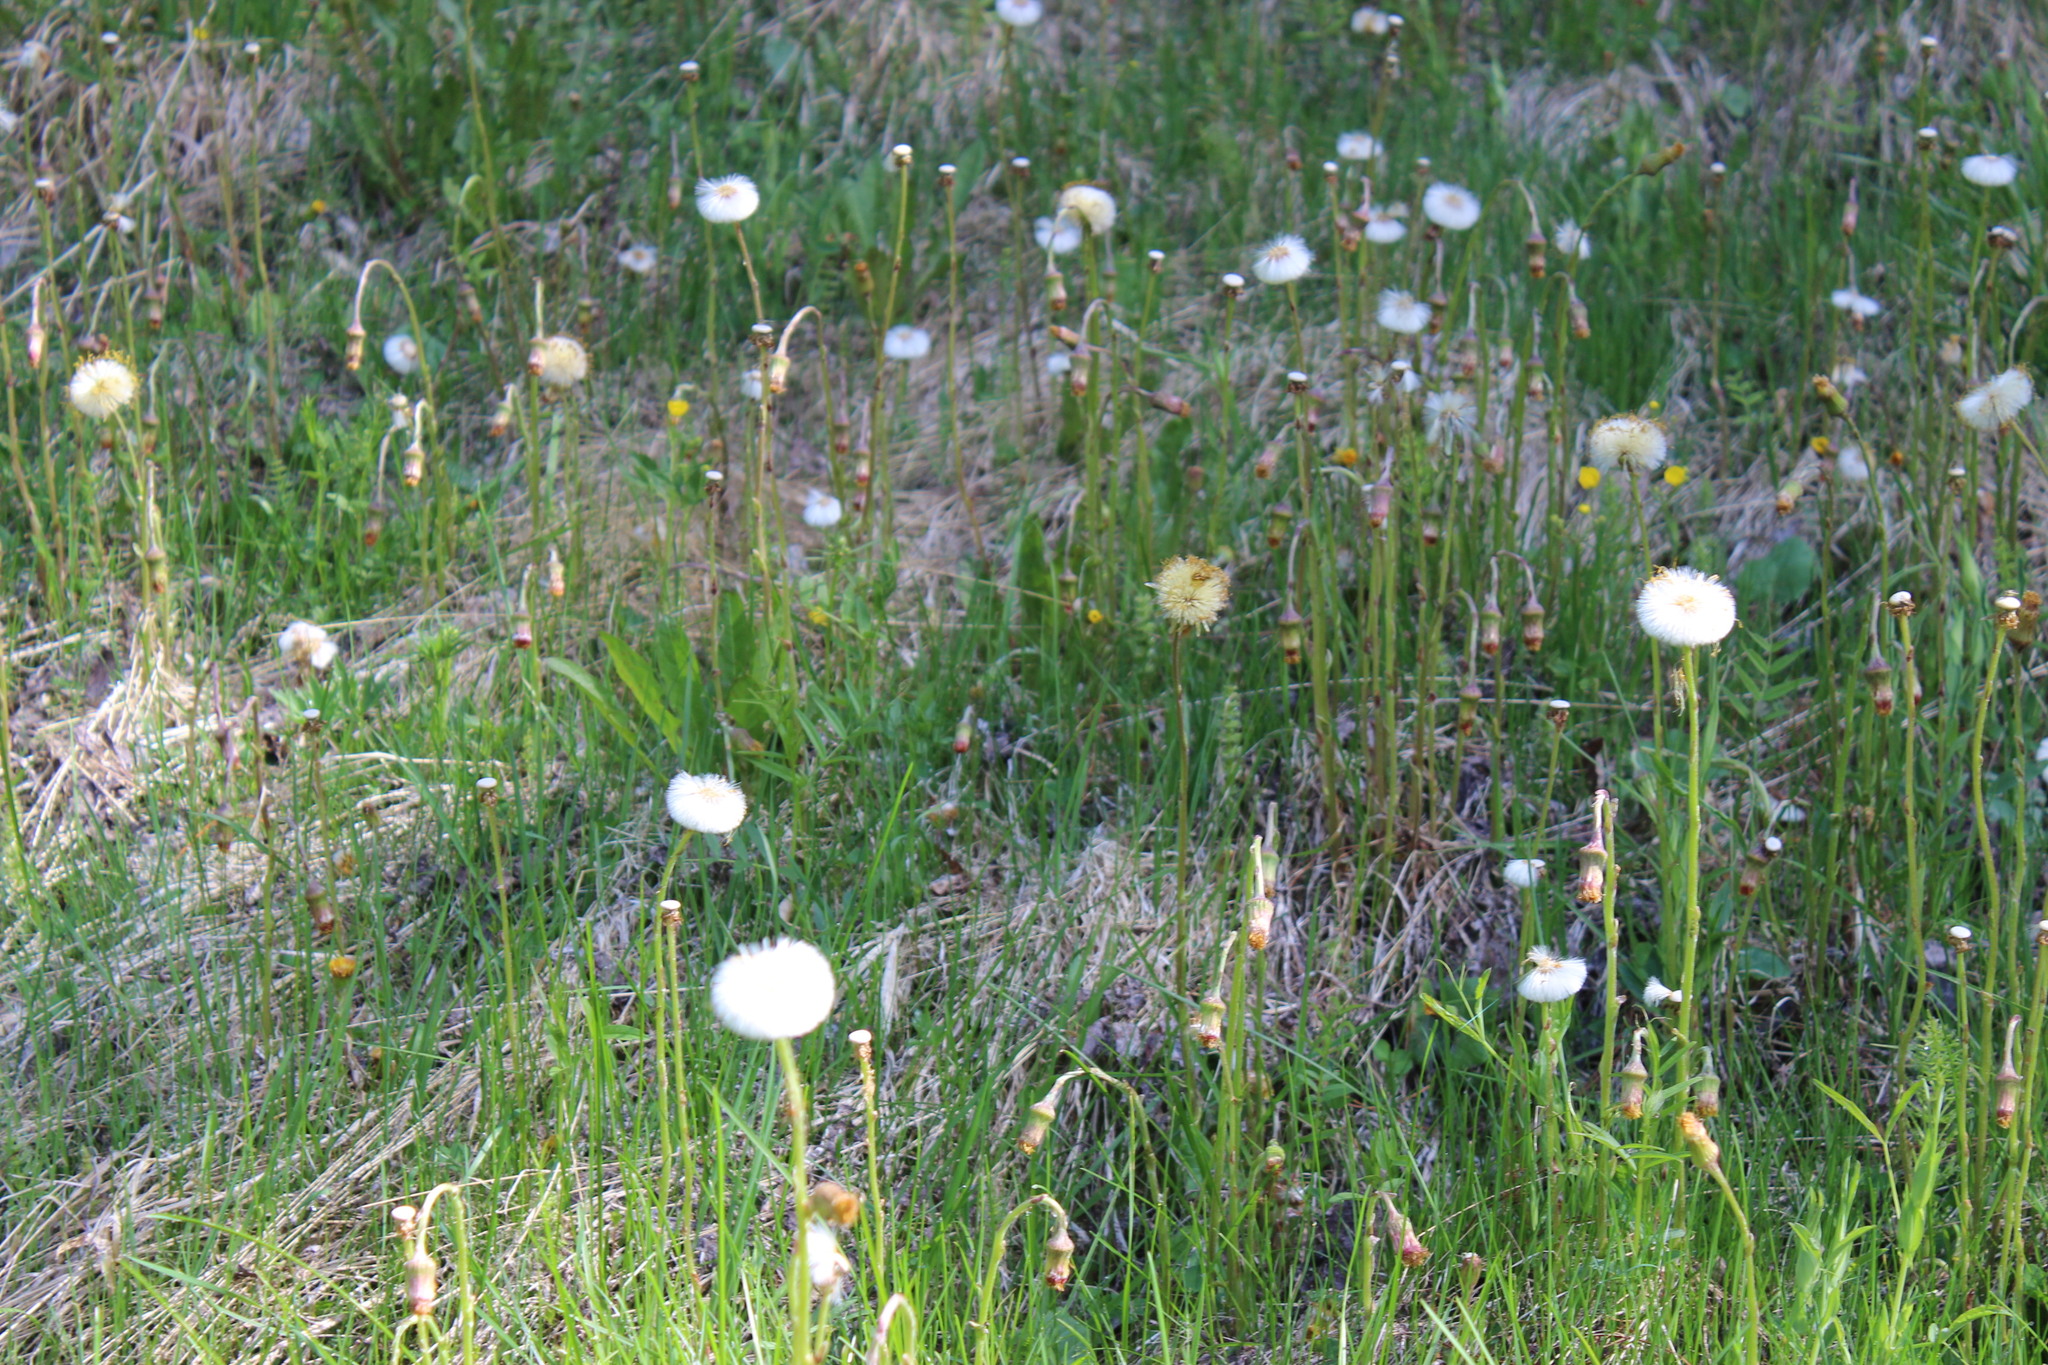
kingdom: Plantae
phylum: Tracheophyta
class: Magnoliopsida
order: Asterales
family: Asteraceae
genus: Tussilago
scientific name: Tussilago farfara
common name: Coltsfoot
